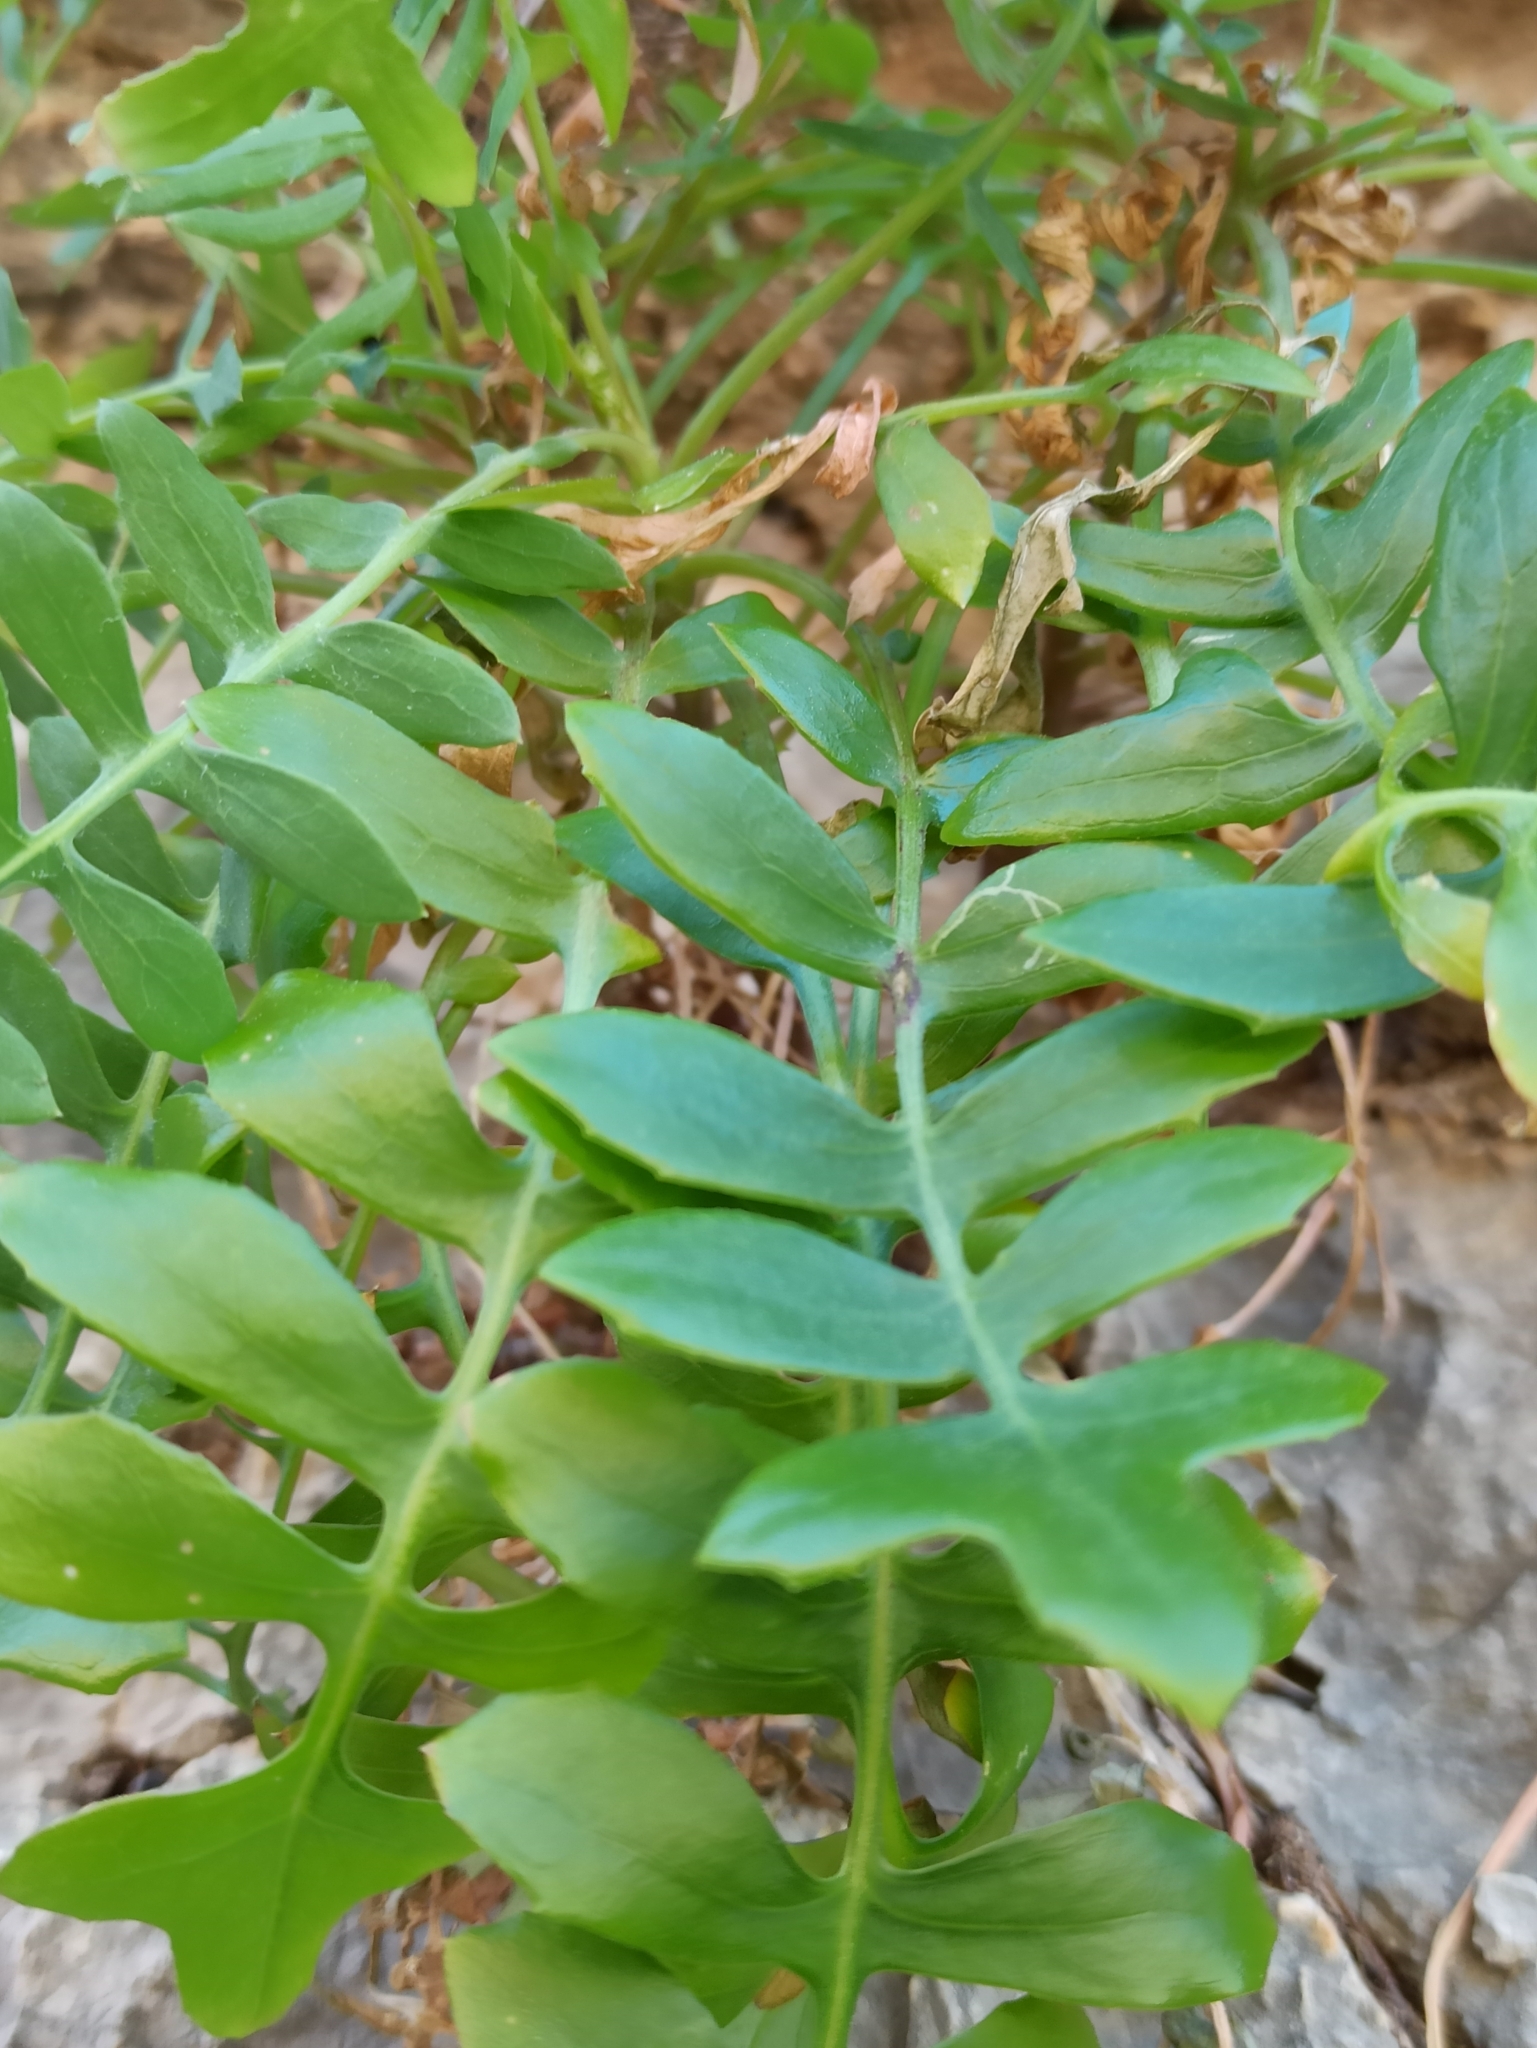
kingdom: Plantae
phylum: Tracheophyta
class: Magnoliopsida
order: Asterales
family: Asteraceae
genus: Sonchus
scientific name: Sonchus tenerrimus
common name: Clammy sowthistle
